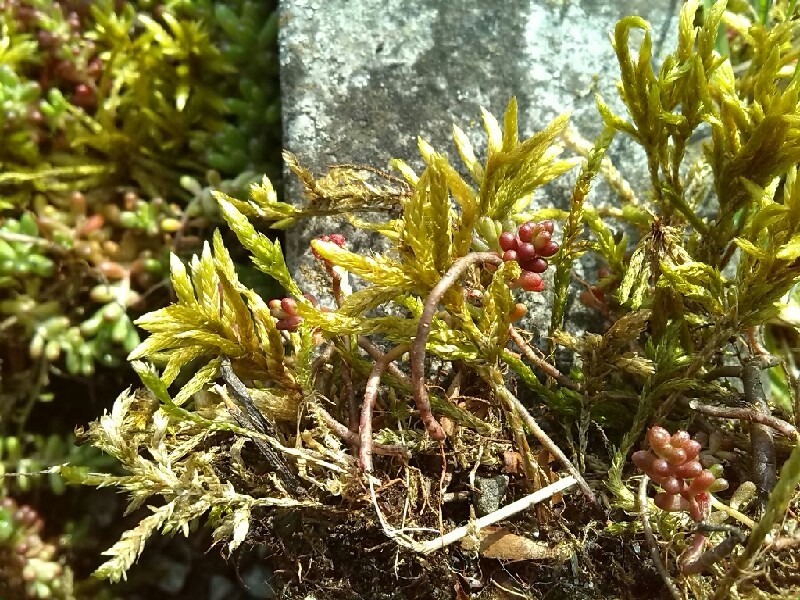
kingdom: Plantae
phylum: Bryophyta
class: Bryopsida
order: Hypnales
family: Climaciaceae
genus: Climacium
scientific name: Climacium dendroides
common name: Northern tree moss
